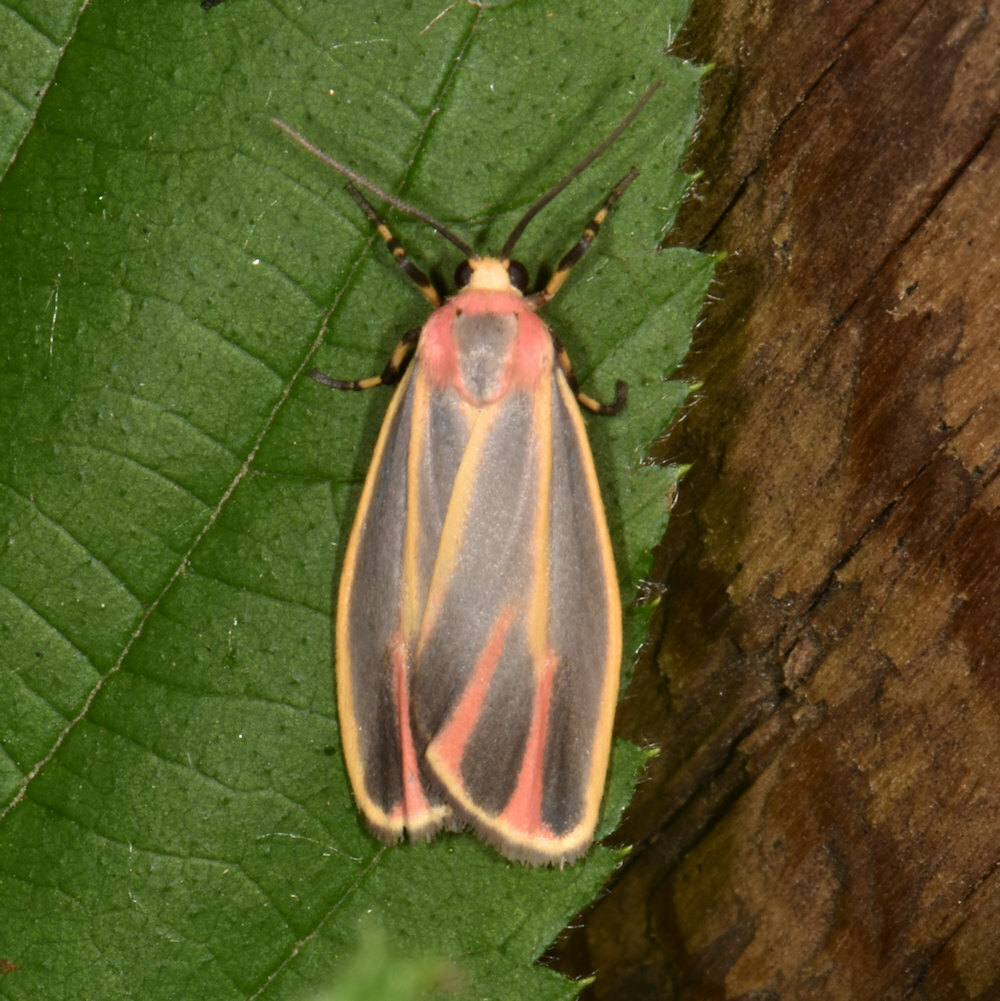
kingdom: Animalia
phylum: Arthropoda
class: Insecta
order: Lepidoptera
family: Erebidae
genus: Hypoprepia
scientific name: Hypoprepia fucosa
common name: Painted lichen moth
